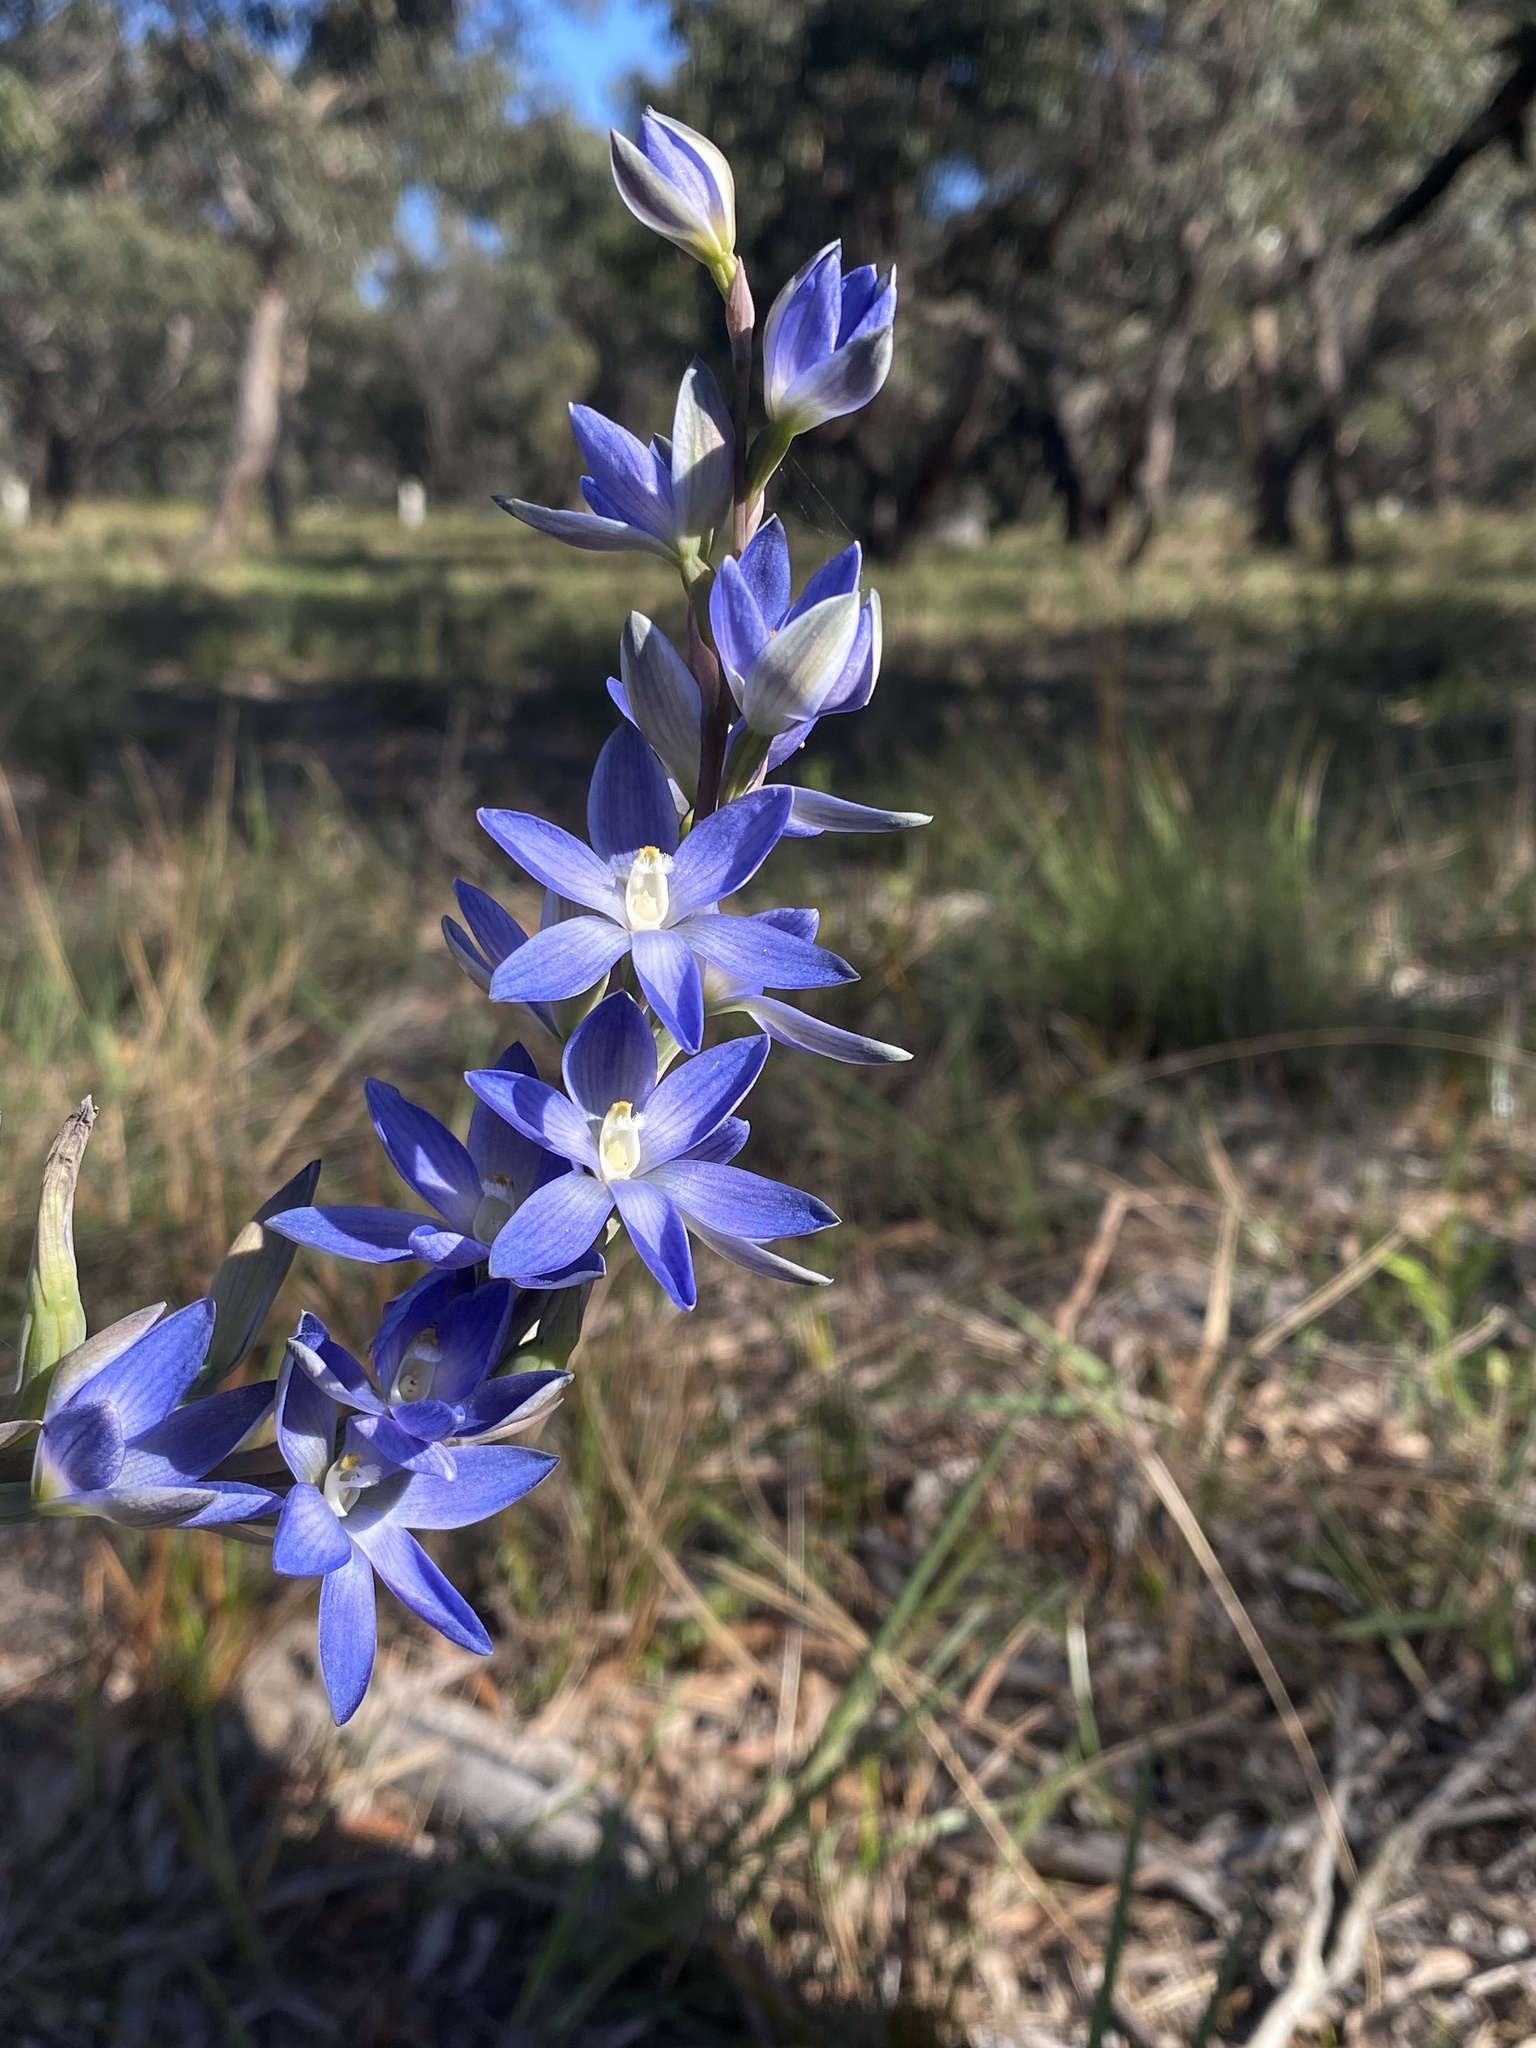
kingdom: Plantae
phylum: Tracheophyta
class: Liliopsida
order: Asparagales
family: Orchidaceae
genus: Thelymitra
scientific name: Thelymitra aristata
